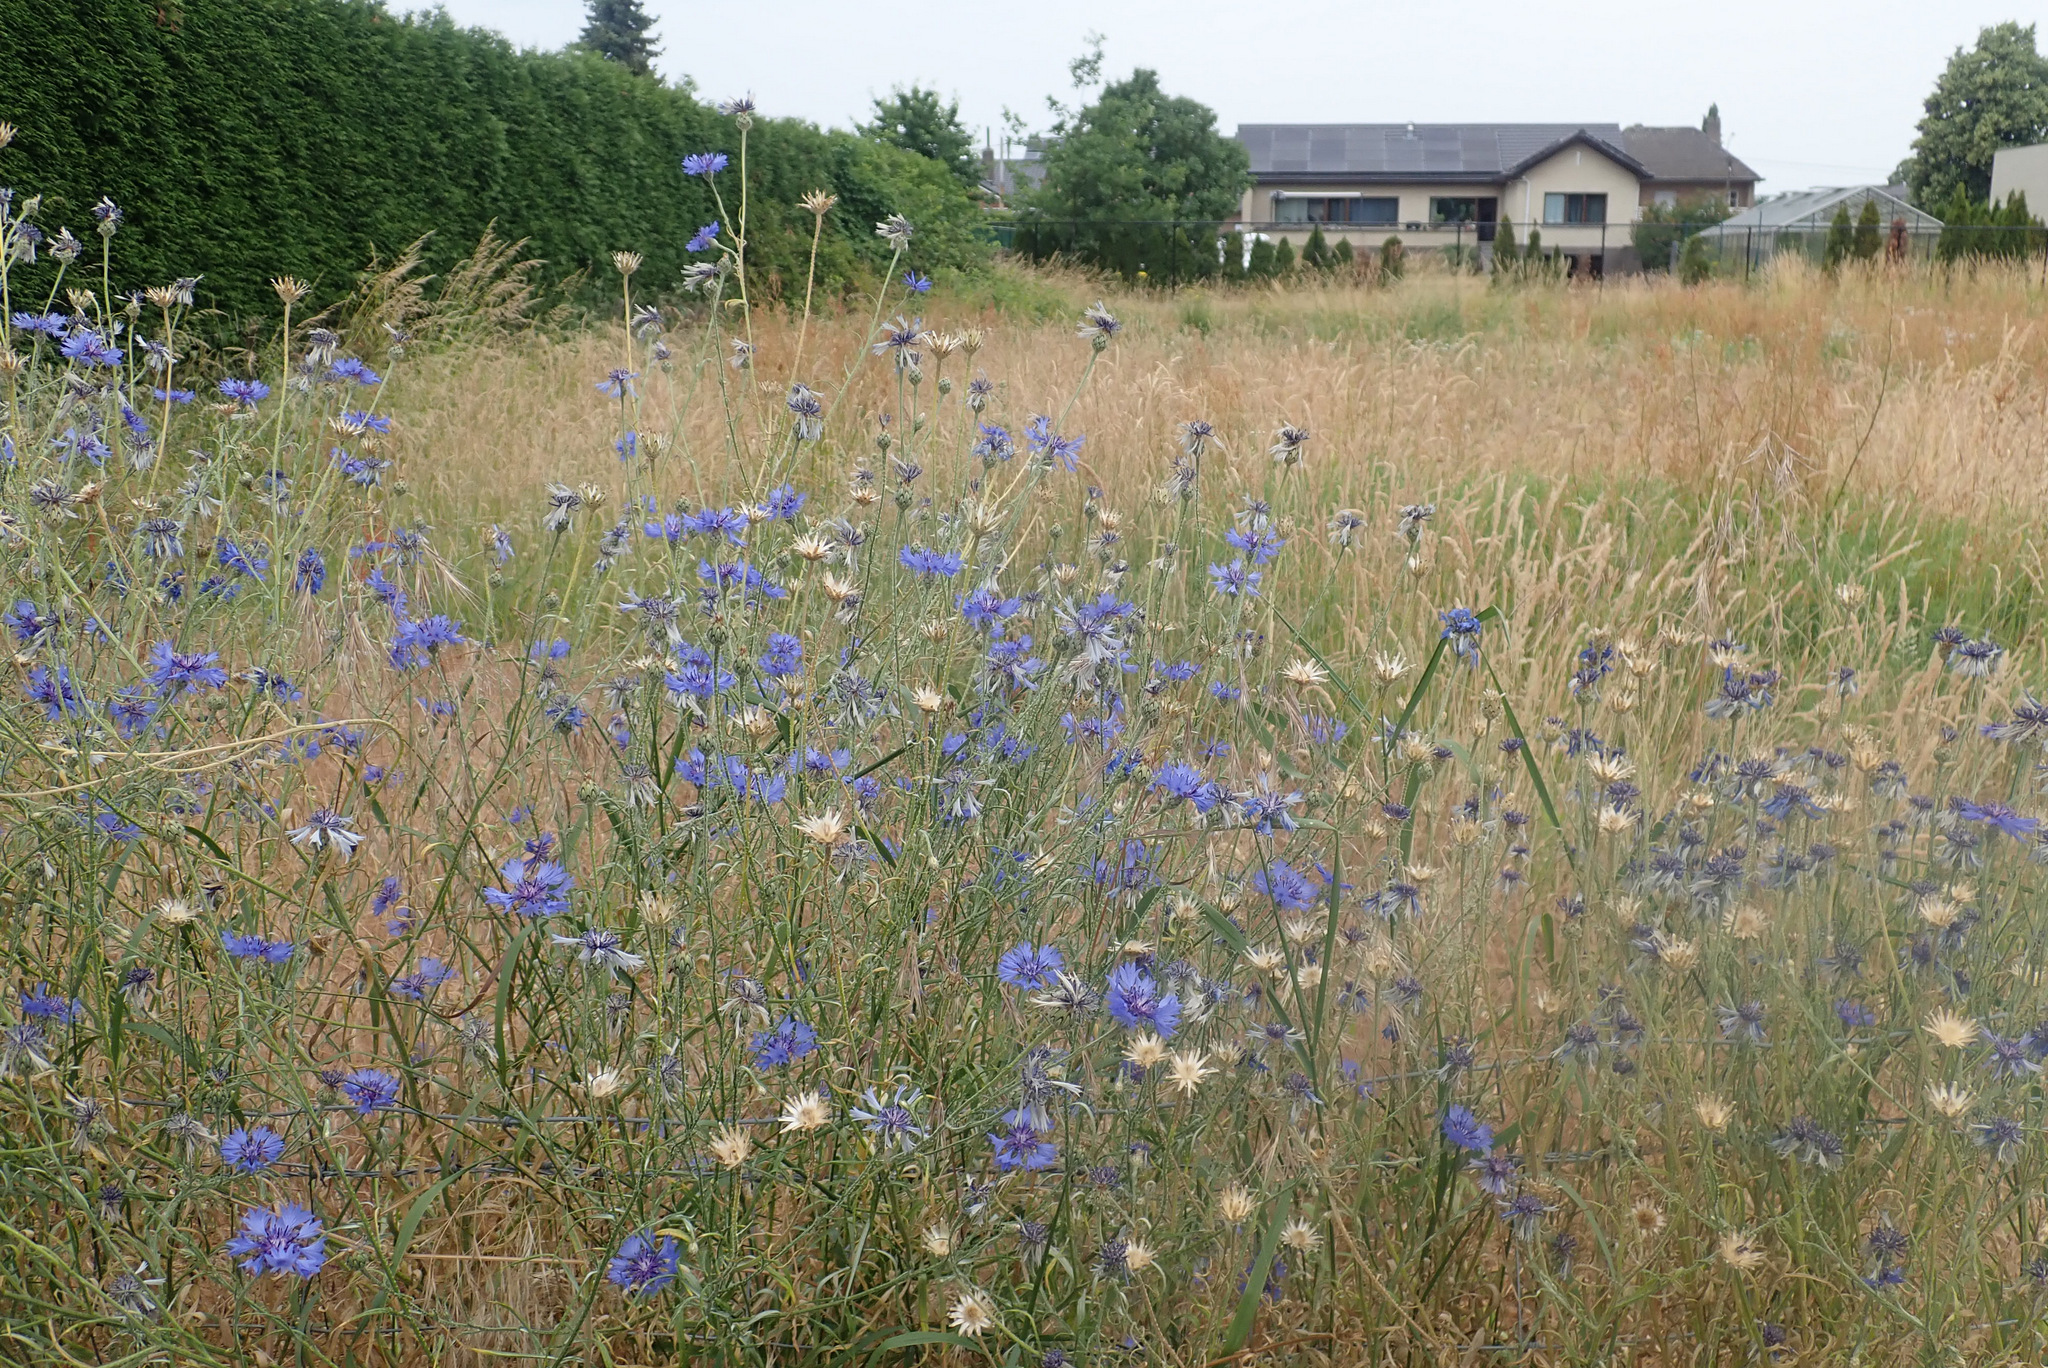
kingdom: Plantae
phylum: Tracheophyta
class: Magnoliopsida
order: Asterales
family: Asteraceae
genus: Centaurea
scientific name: Centaurea cyanus
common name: Cornflower
